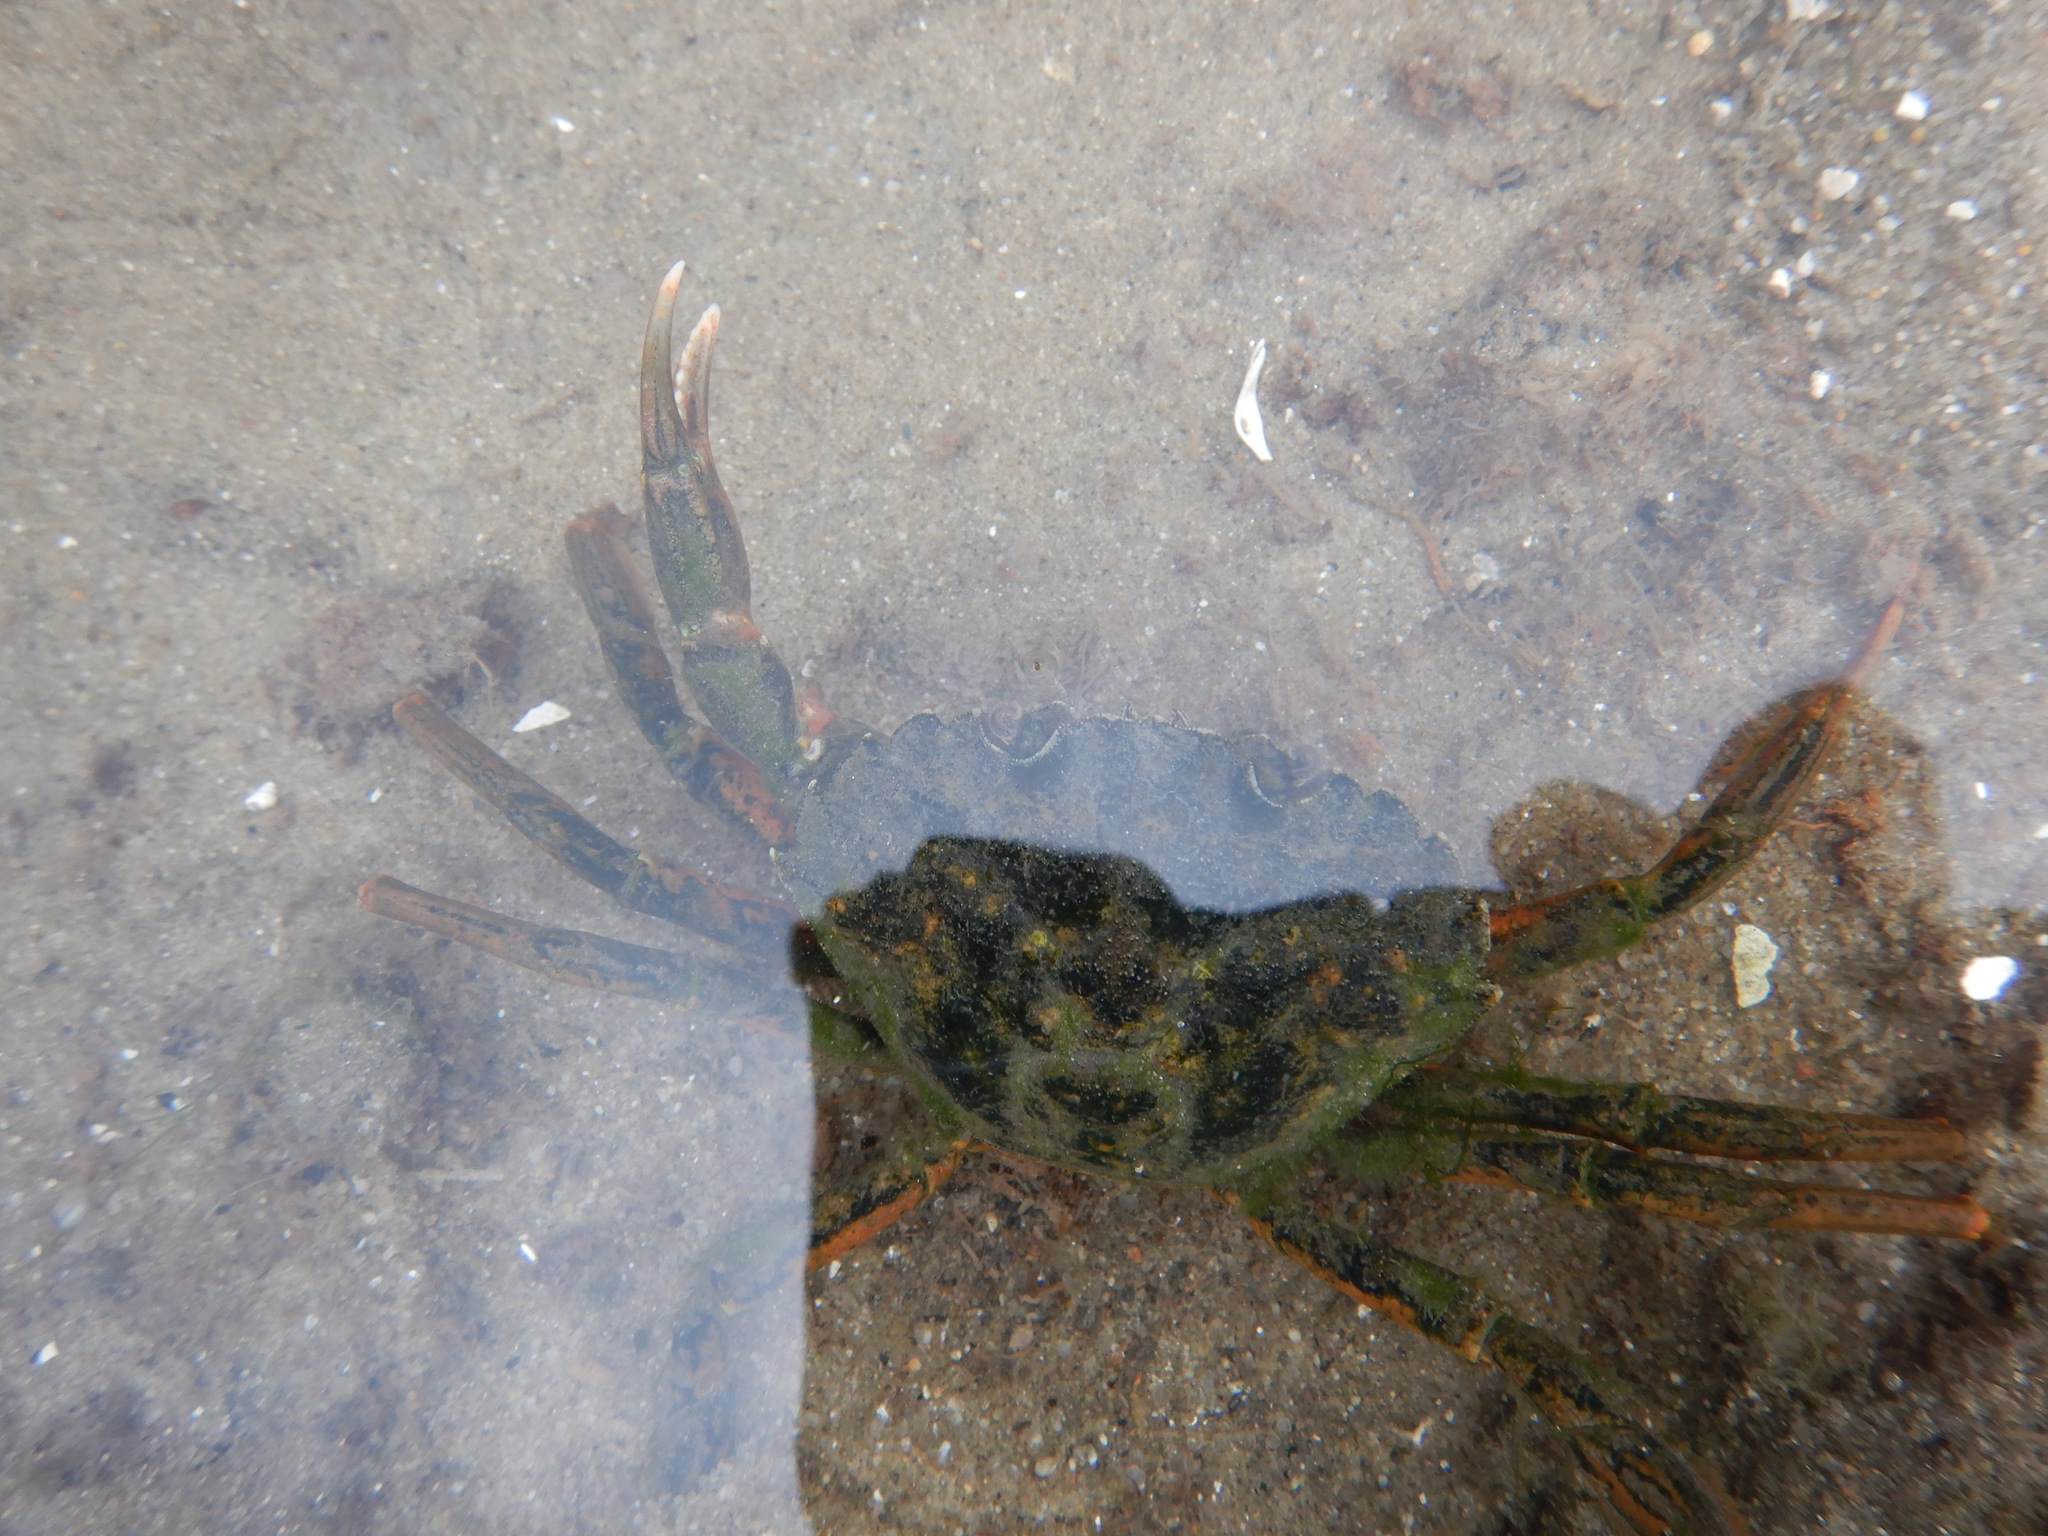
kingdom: Animalia
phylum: Arthropoda
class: Malacostraca
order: Decapoda
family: Carcinidae
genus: Carcinus
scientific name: Carcinus maenas
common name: European green crab
